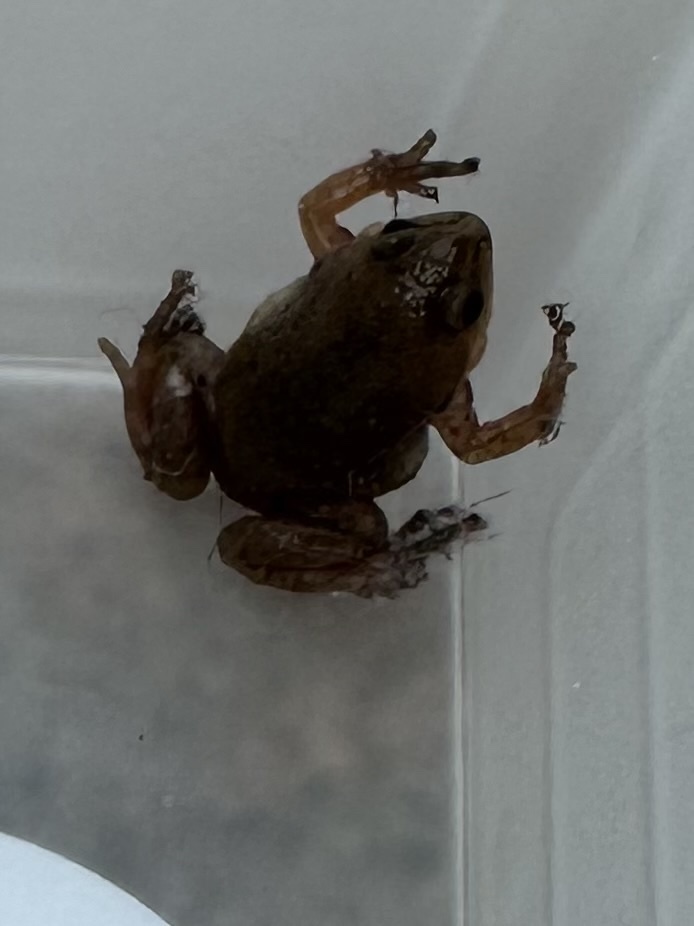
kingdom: Animalia
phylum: Chordata
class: Amphibia
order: Anura
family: Microhylidae
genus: Gastrophryne
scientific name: Gastrophryne olivacea
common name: Great plains narrow-mouthed toad
